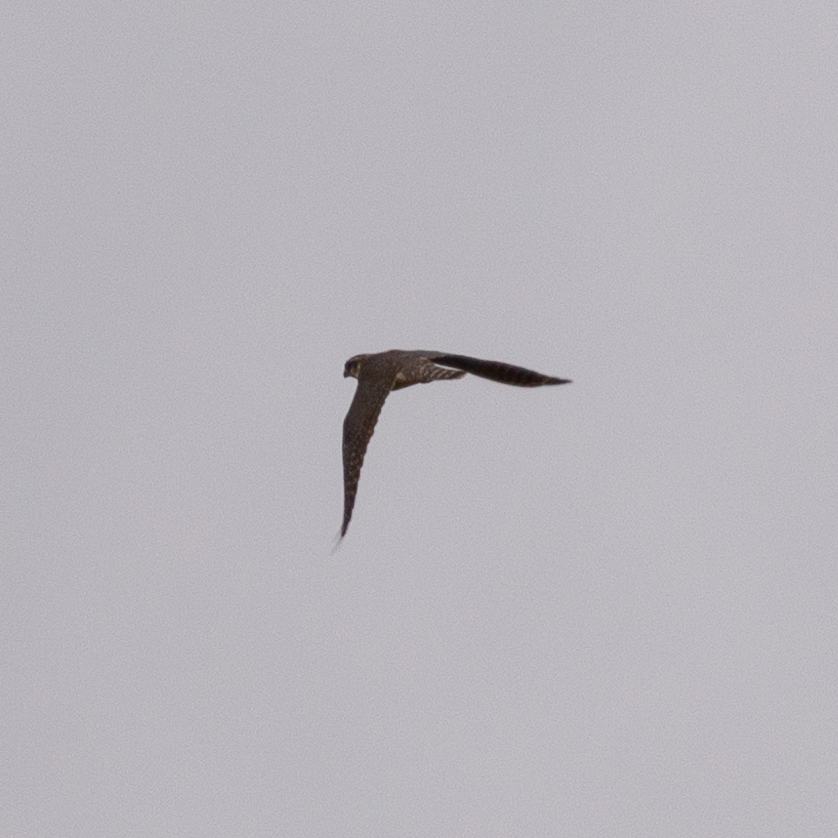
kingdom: Animalia
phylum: Chordata
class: Aves
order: Falconiformes
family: Falconidae
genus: Falco
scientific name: Falco columbarius
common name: Merlin
